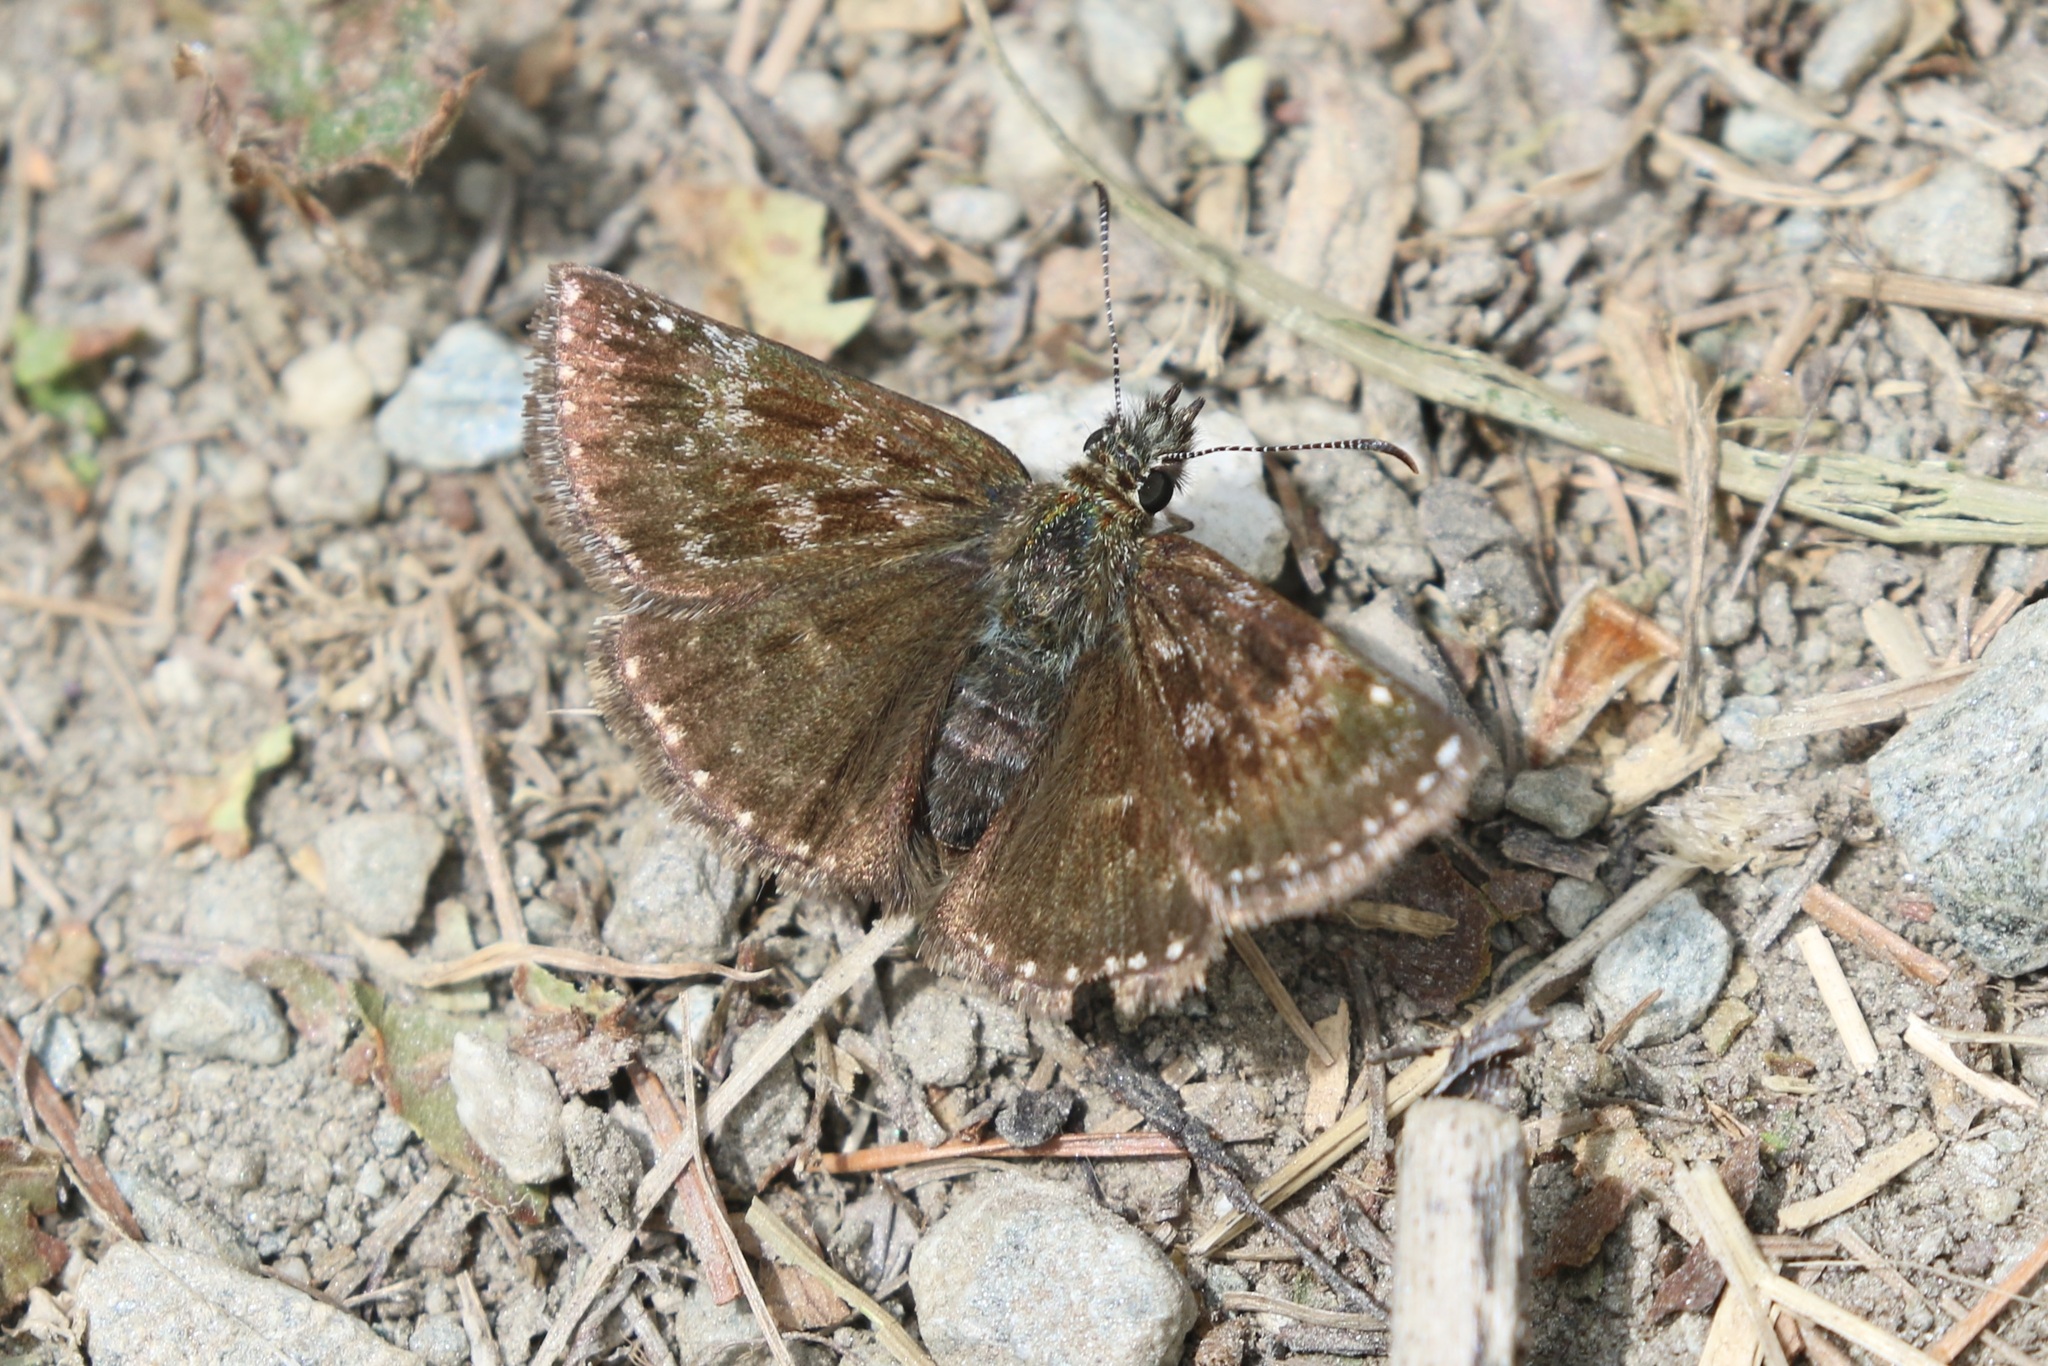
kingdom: Animalia
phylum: Arthropoda
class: Insecta
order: Lepidoptera
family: Hesperiidae
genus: Erynnis
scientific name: Erynnis tages
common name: Dingy skipper
